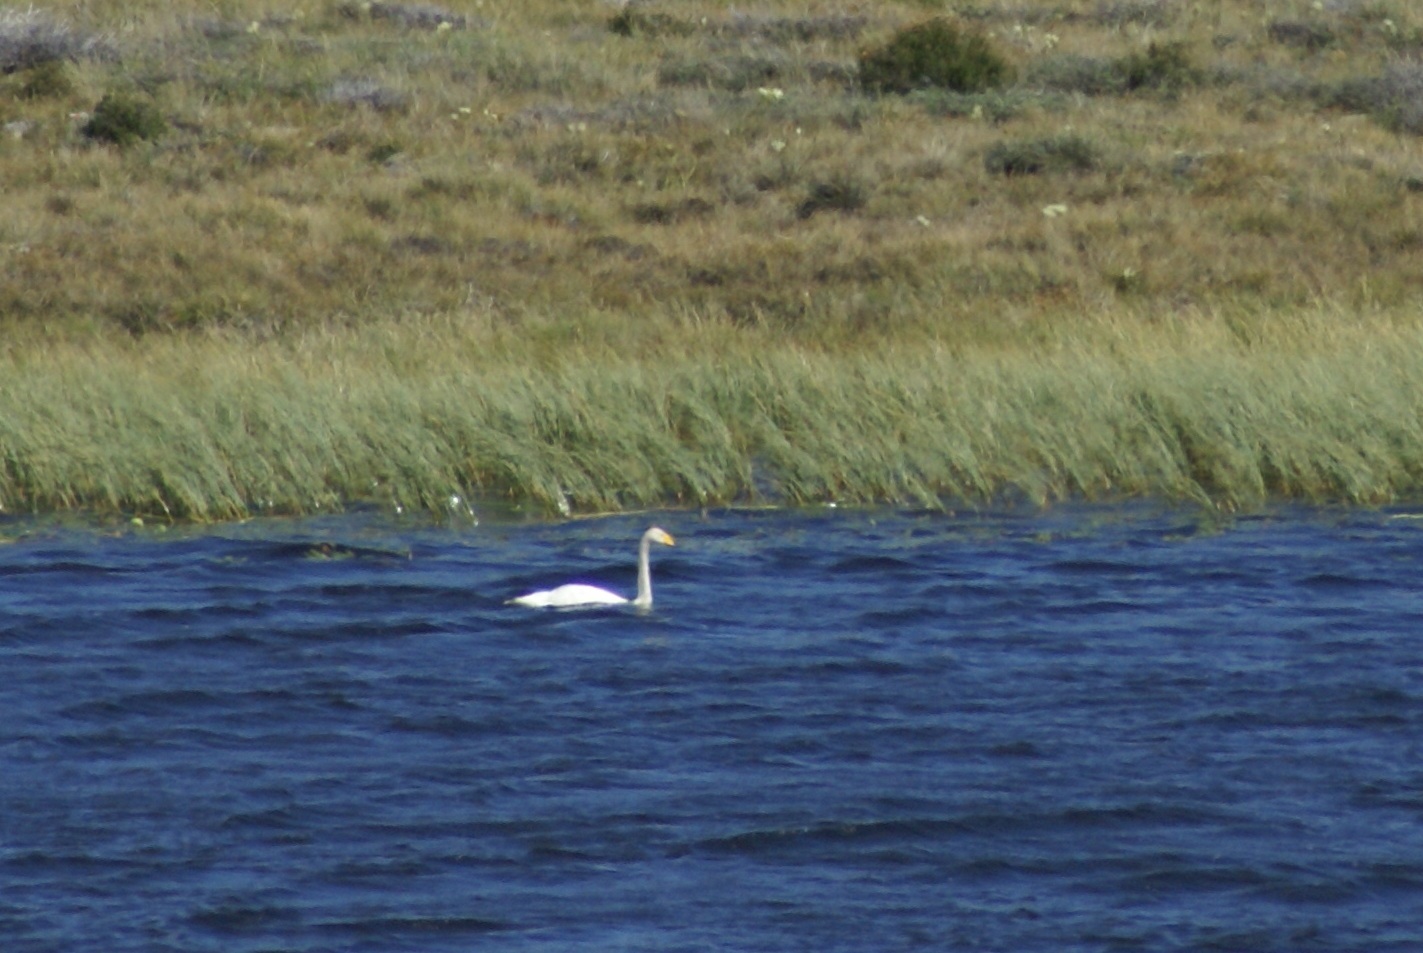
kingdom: Animalia
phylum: Chordata
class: Aves
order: Anseriformes
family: Anatidae
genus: Cygnus
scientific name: Cygnus cygnus
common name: Whooper swan
